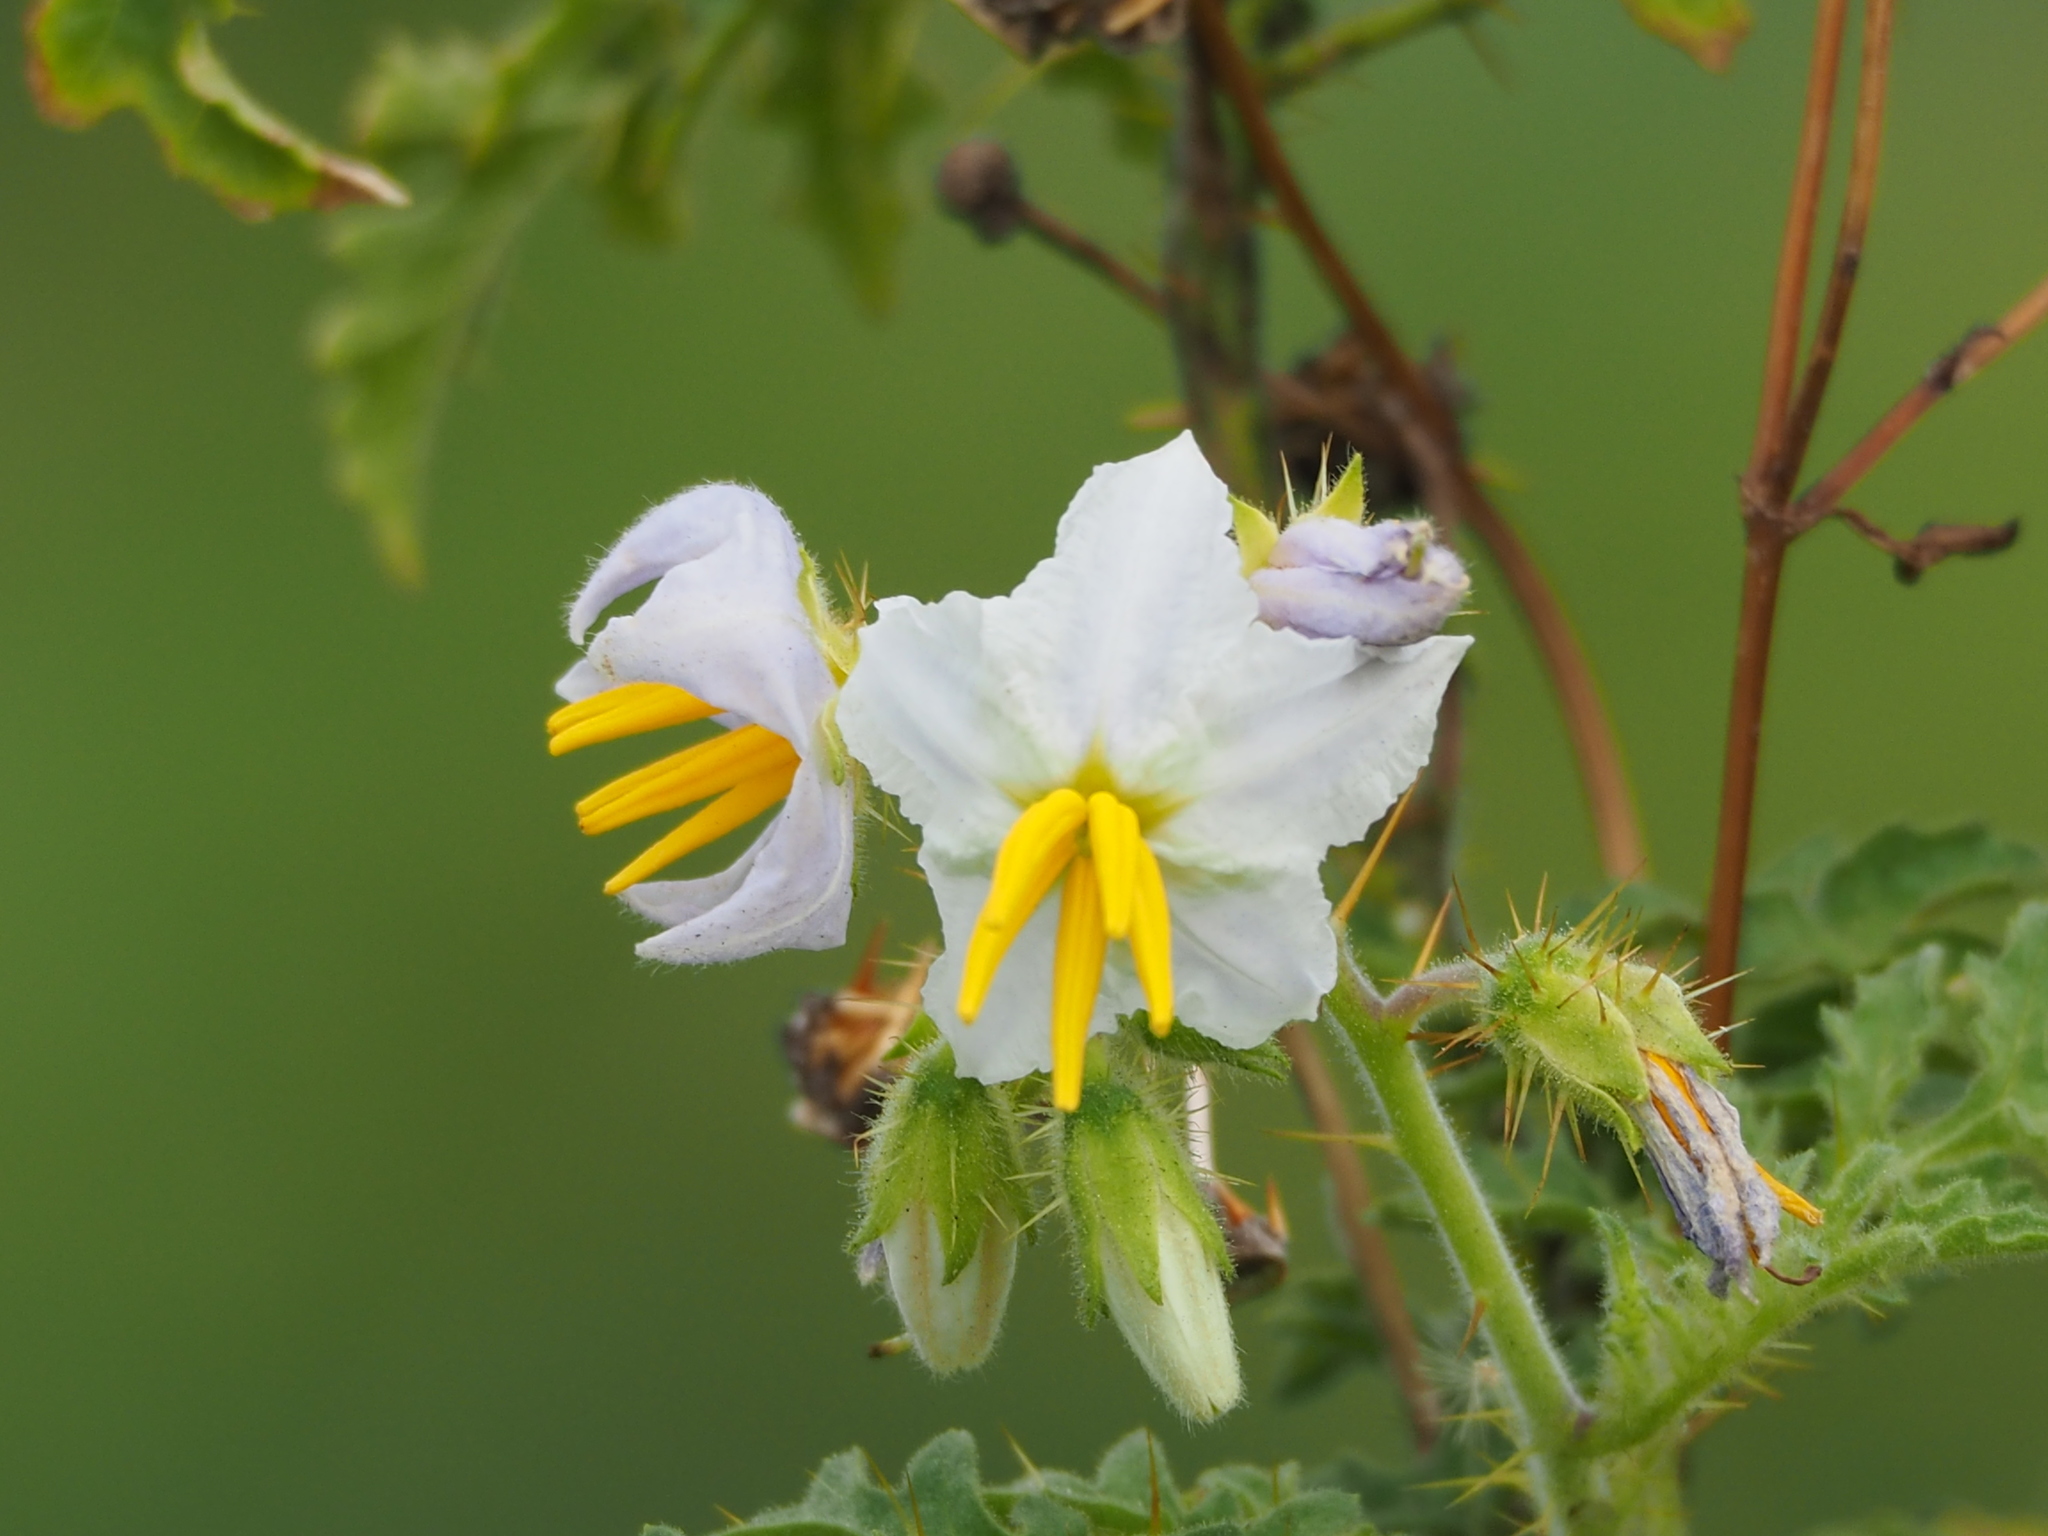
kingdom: Plantae
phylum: Tracheophyta
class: Magnoliopsida
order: Solanales
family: Solanaceae
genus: Solanum
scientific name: Solanum sisymbriifolium
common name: Red buffalo-bur
